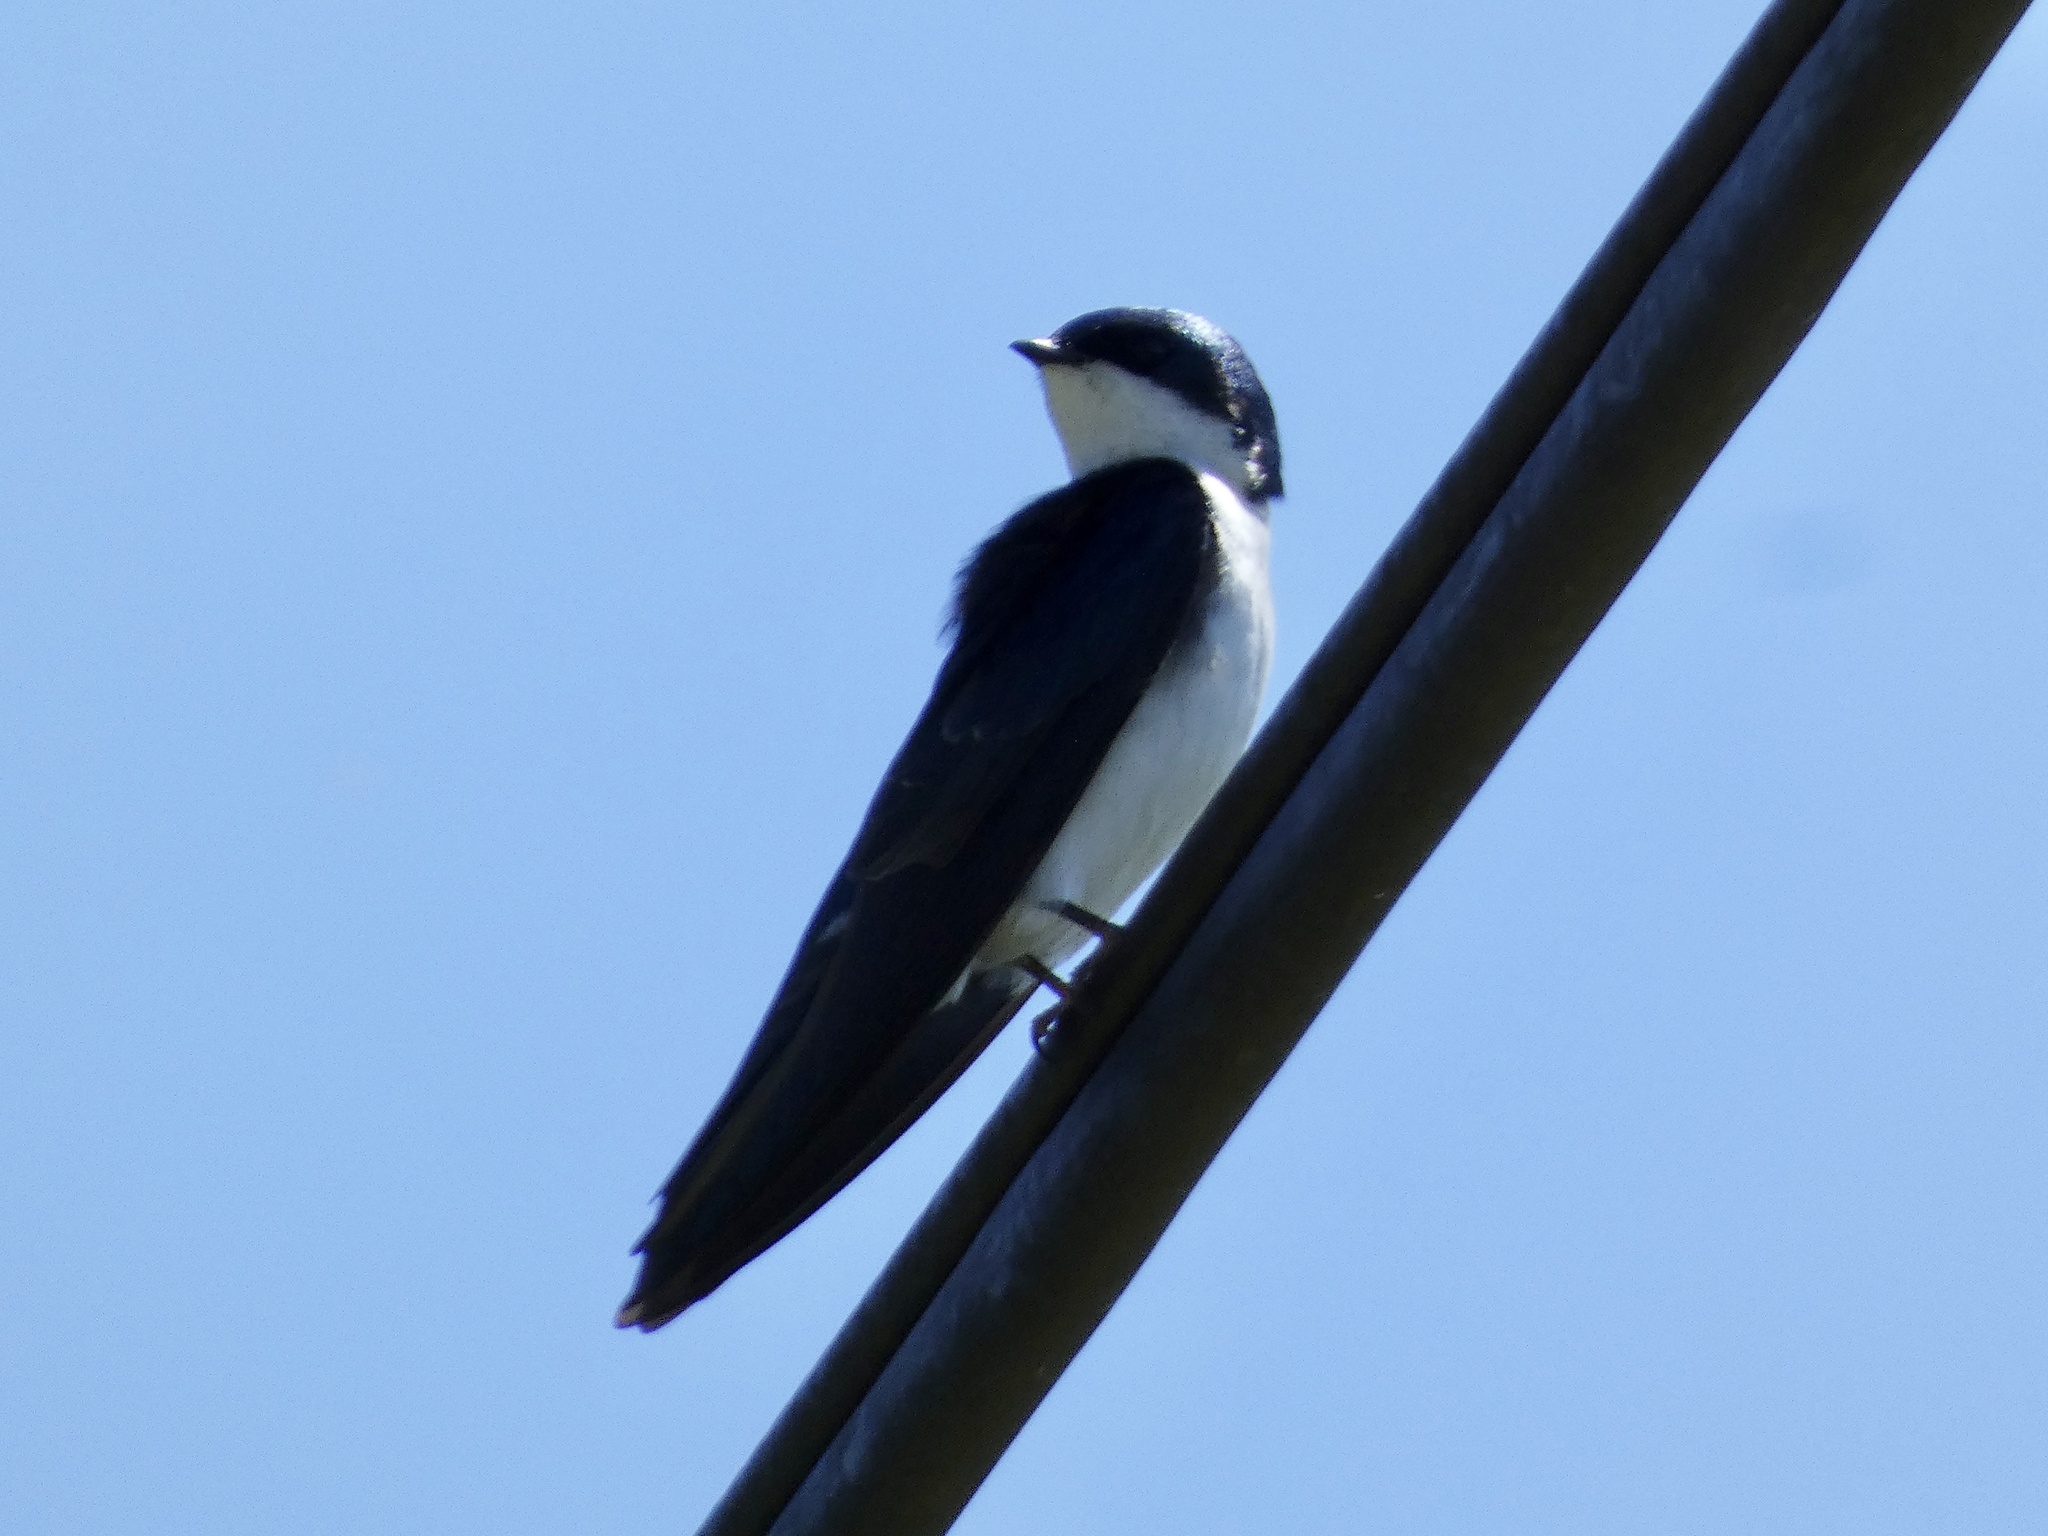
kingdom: Animalia
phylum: Chordata
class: Aves
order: Passeriformes
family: Hirundinidae
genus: Tachycineta
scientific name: Tachycineta bicolor
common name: Tree swallow
